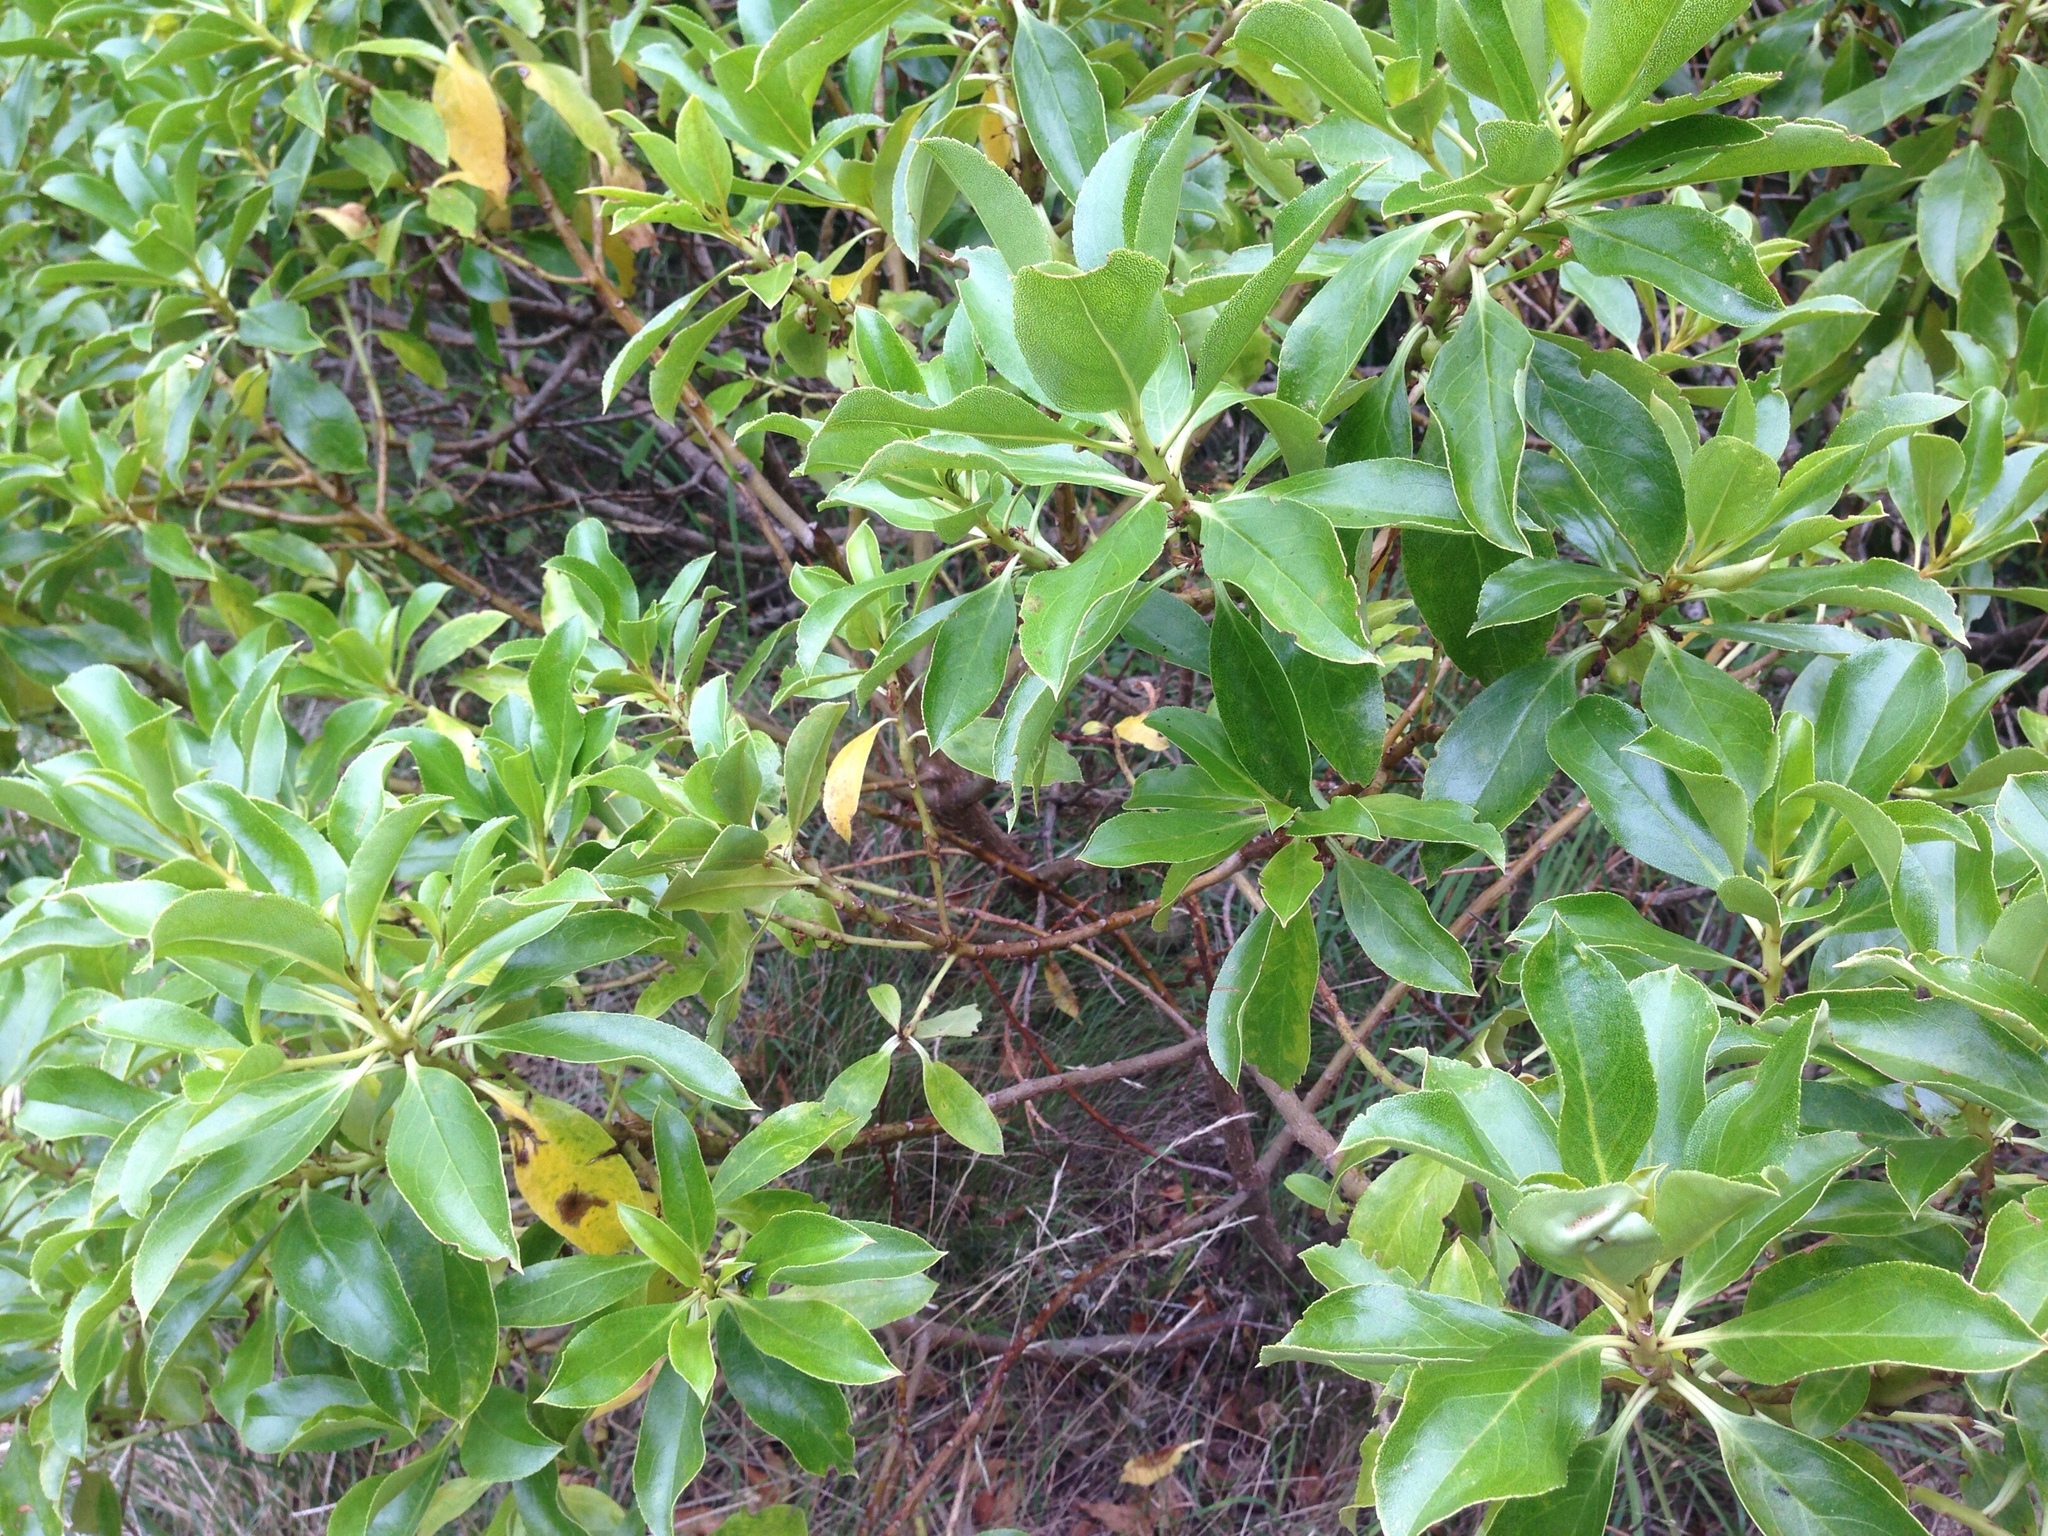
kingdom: Plantae
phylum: Tracheophyta
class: Magnoliopsida
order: Lamiales
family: Scrophulariaceae
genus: Myoporum
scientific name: Myoporum laetum
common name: Ngaio tree
